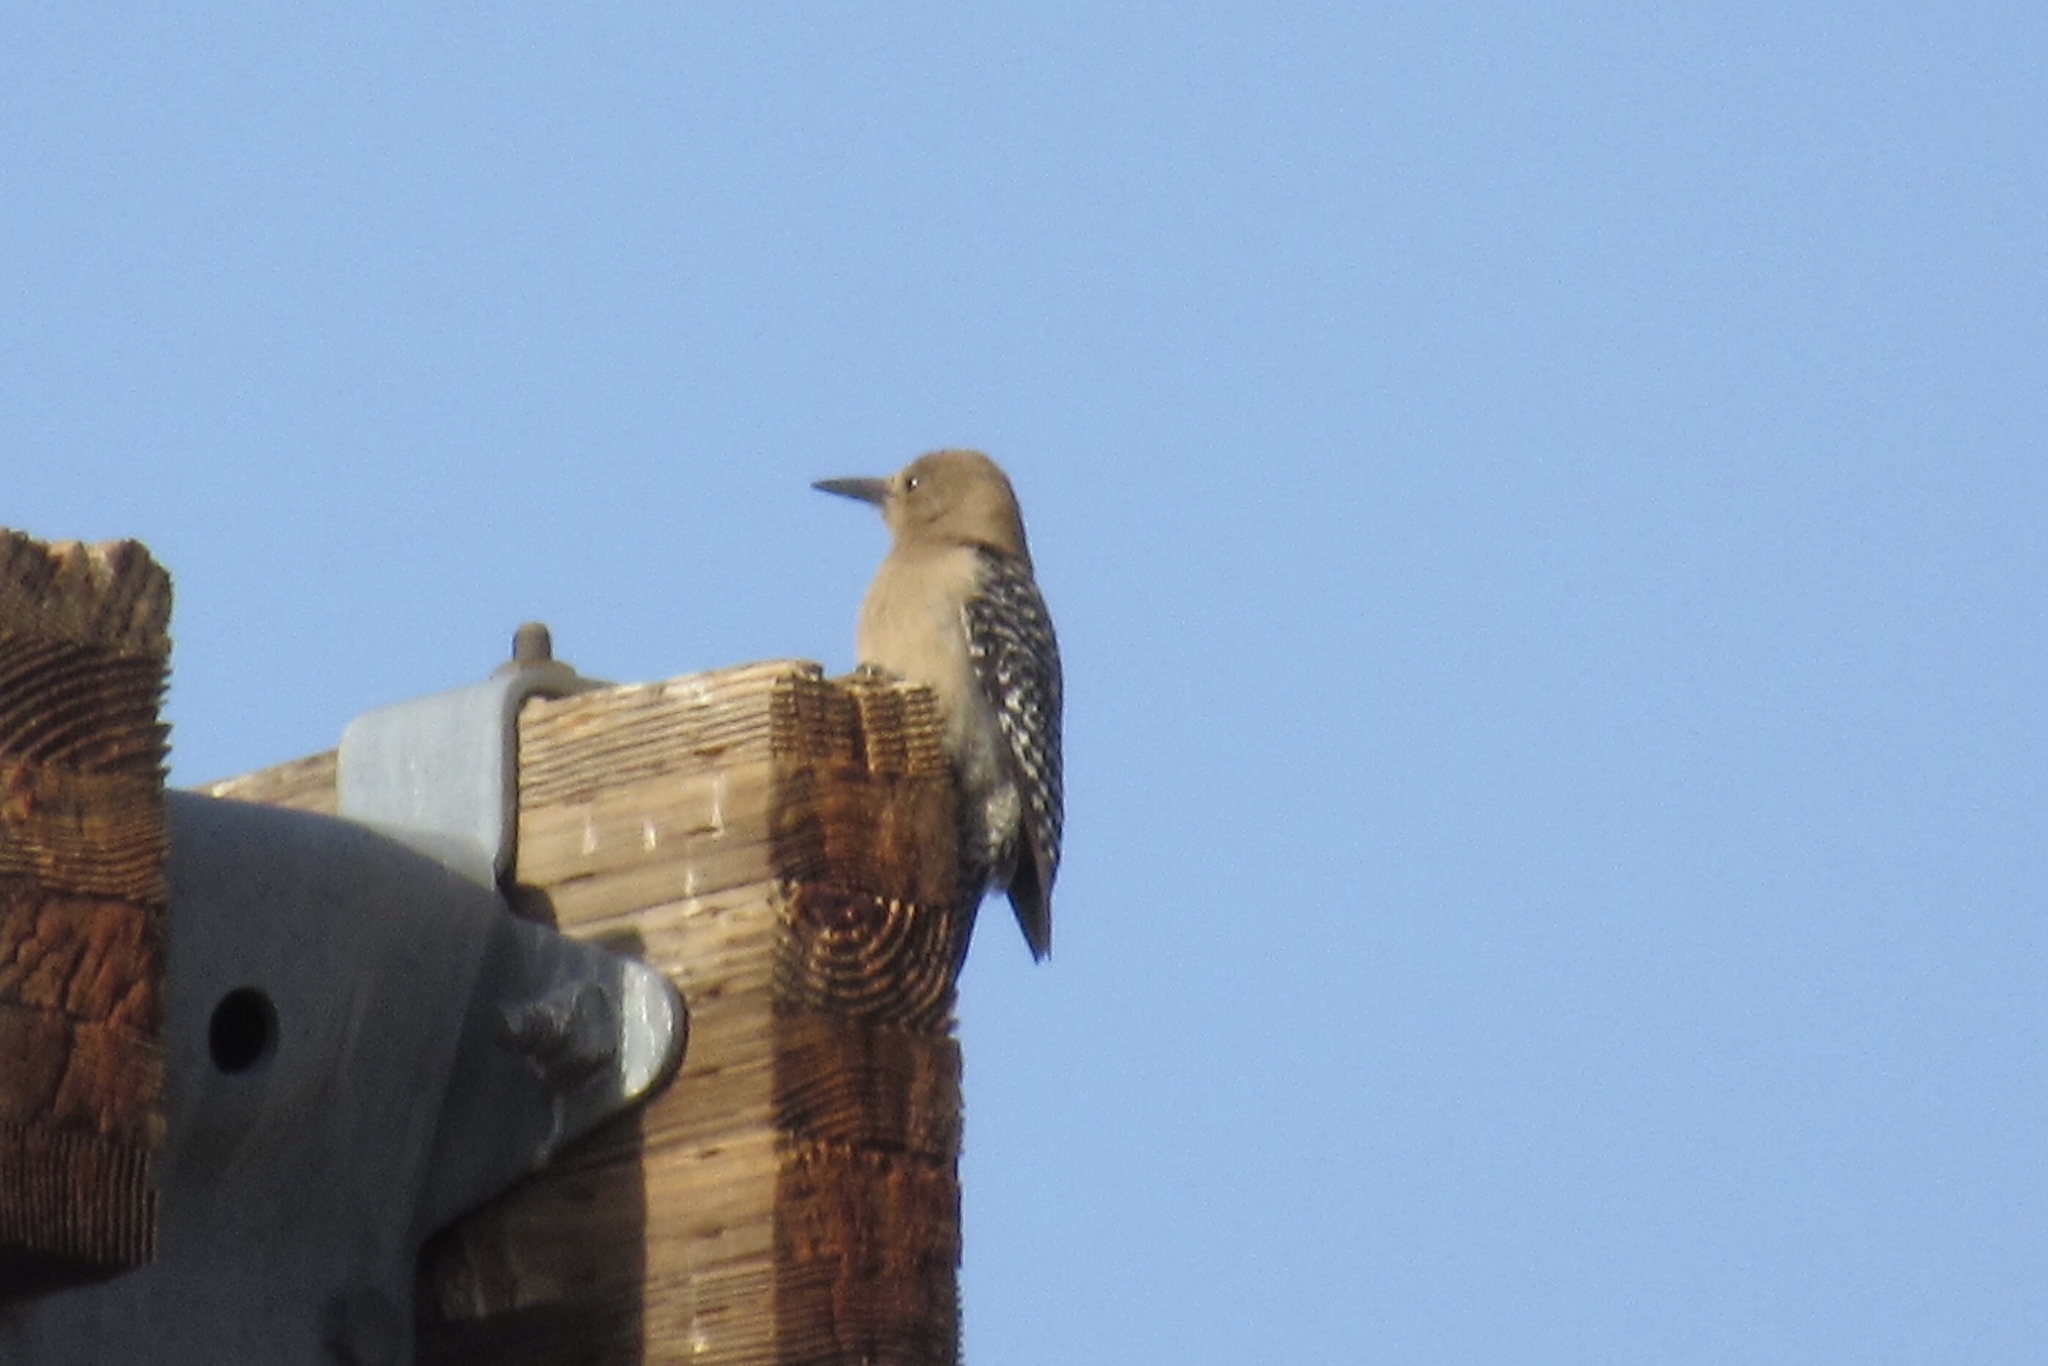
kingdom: Animalia
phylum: Chordata
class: Aves
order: Piciformes
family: Picidae
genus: Melanerpes
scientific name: Melanerpes uropygialis
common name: Gila woodpecker
